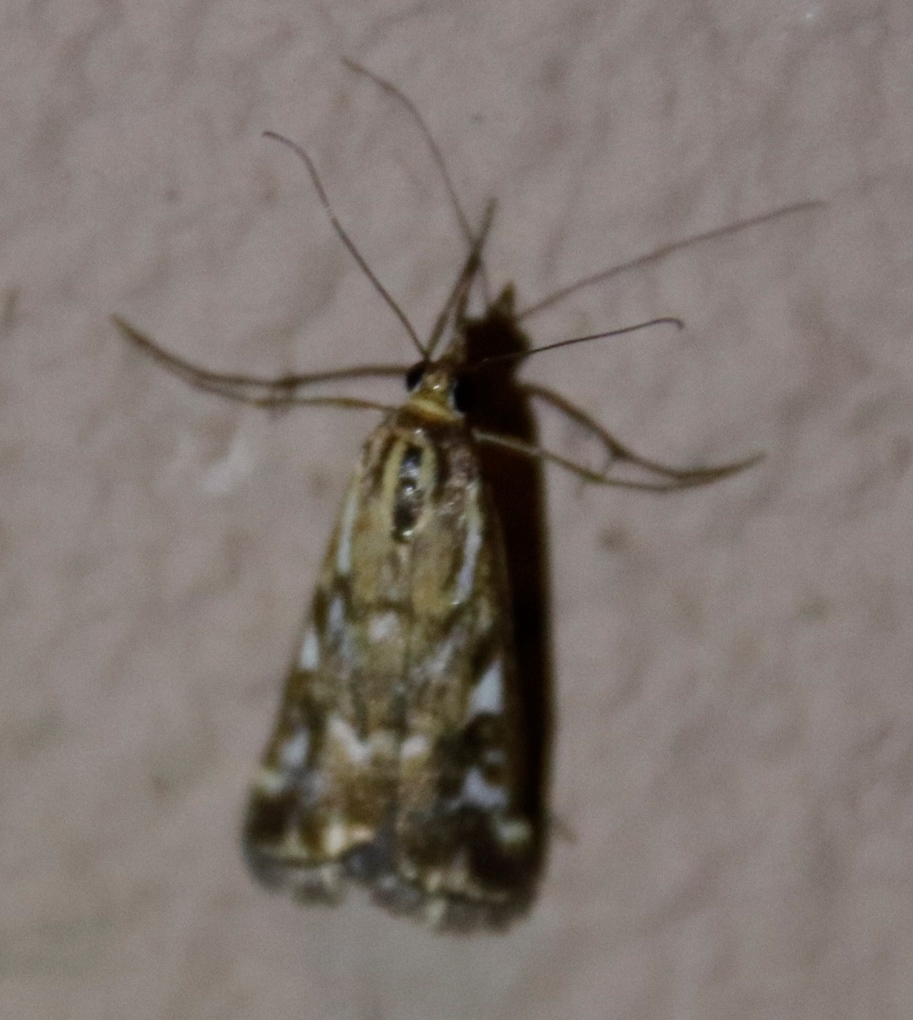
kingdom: Animalia
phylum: Arthropoda
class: Insecta
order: Lepidoptera
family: Crambidae
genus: Loxostege
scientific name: Loxostege frustalis
